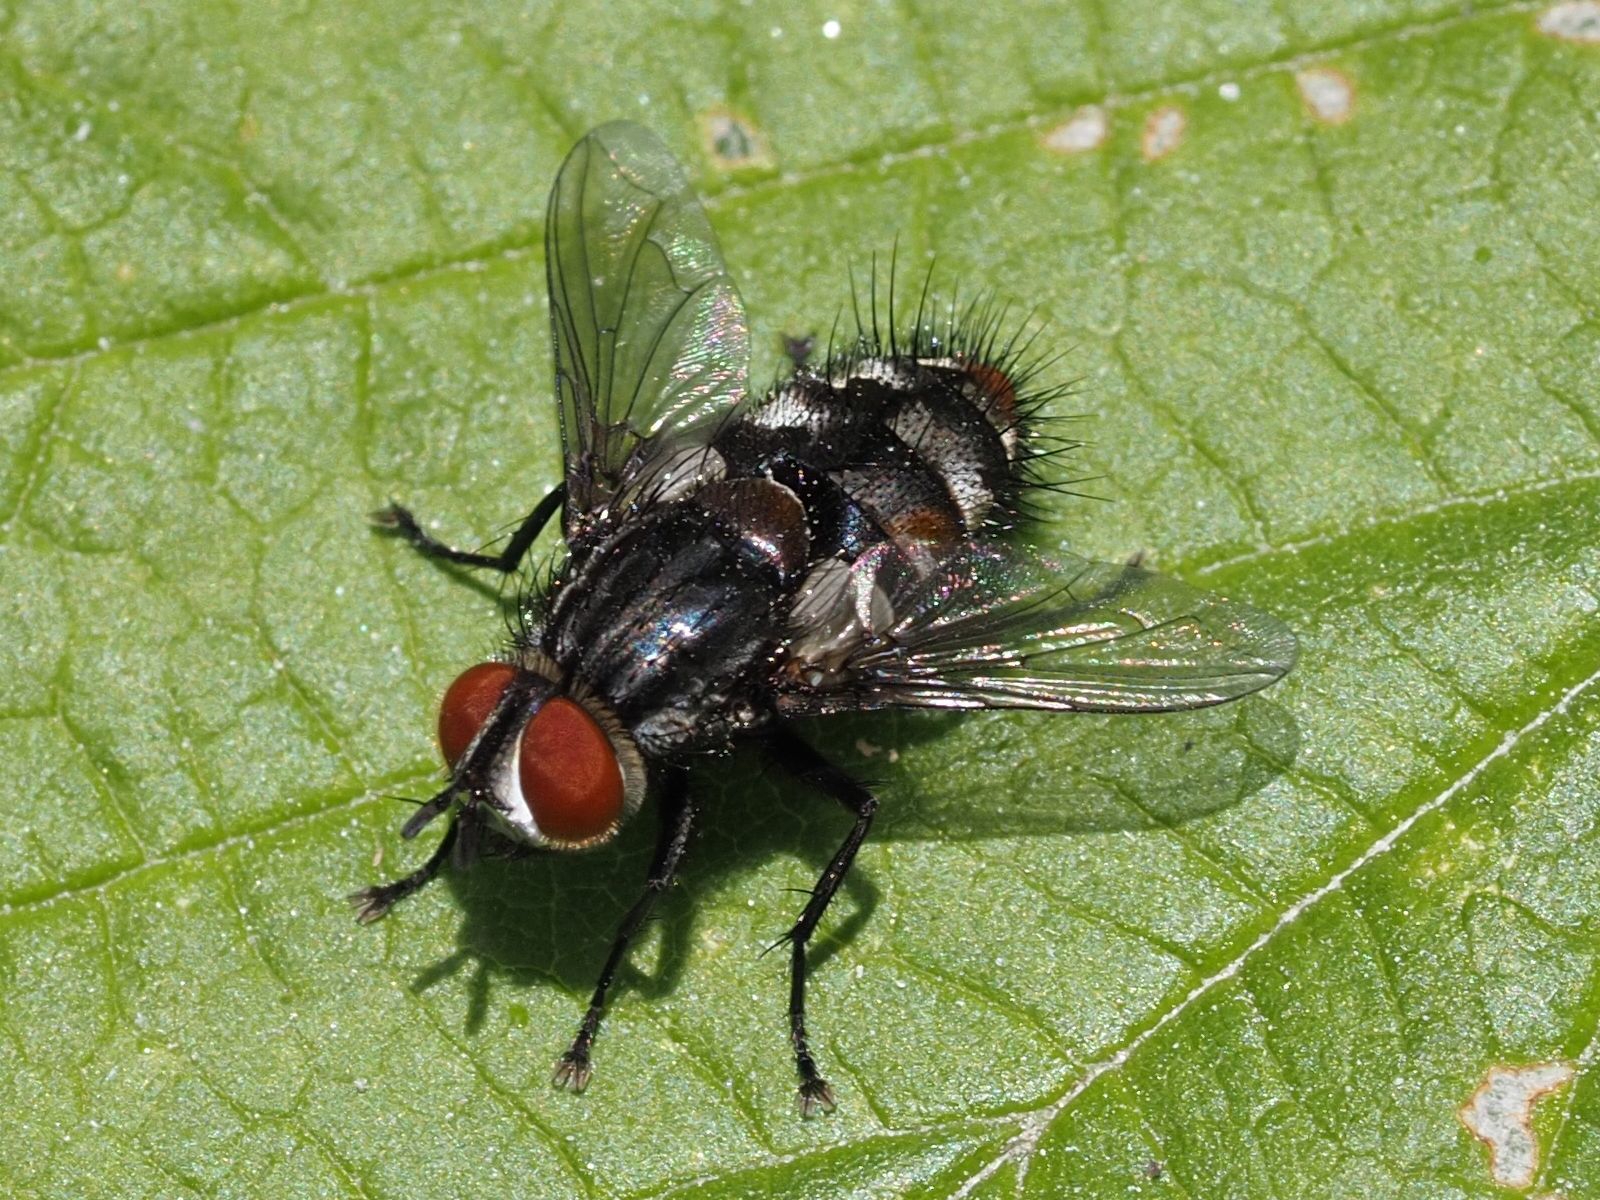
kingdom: Animalia
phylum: Arthropoda
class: Insecta
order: Diptera
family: Tachinidae
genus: Winthemia
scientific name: Winthemia quadripustulata
